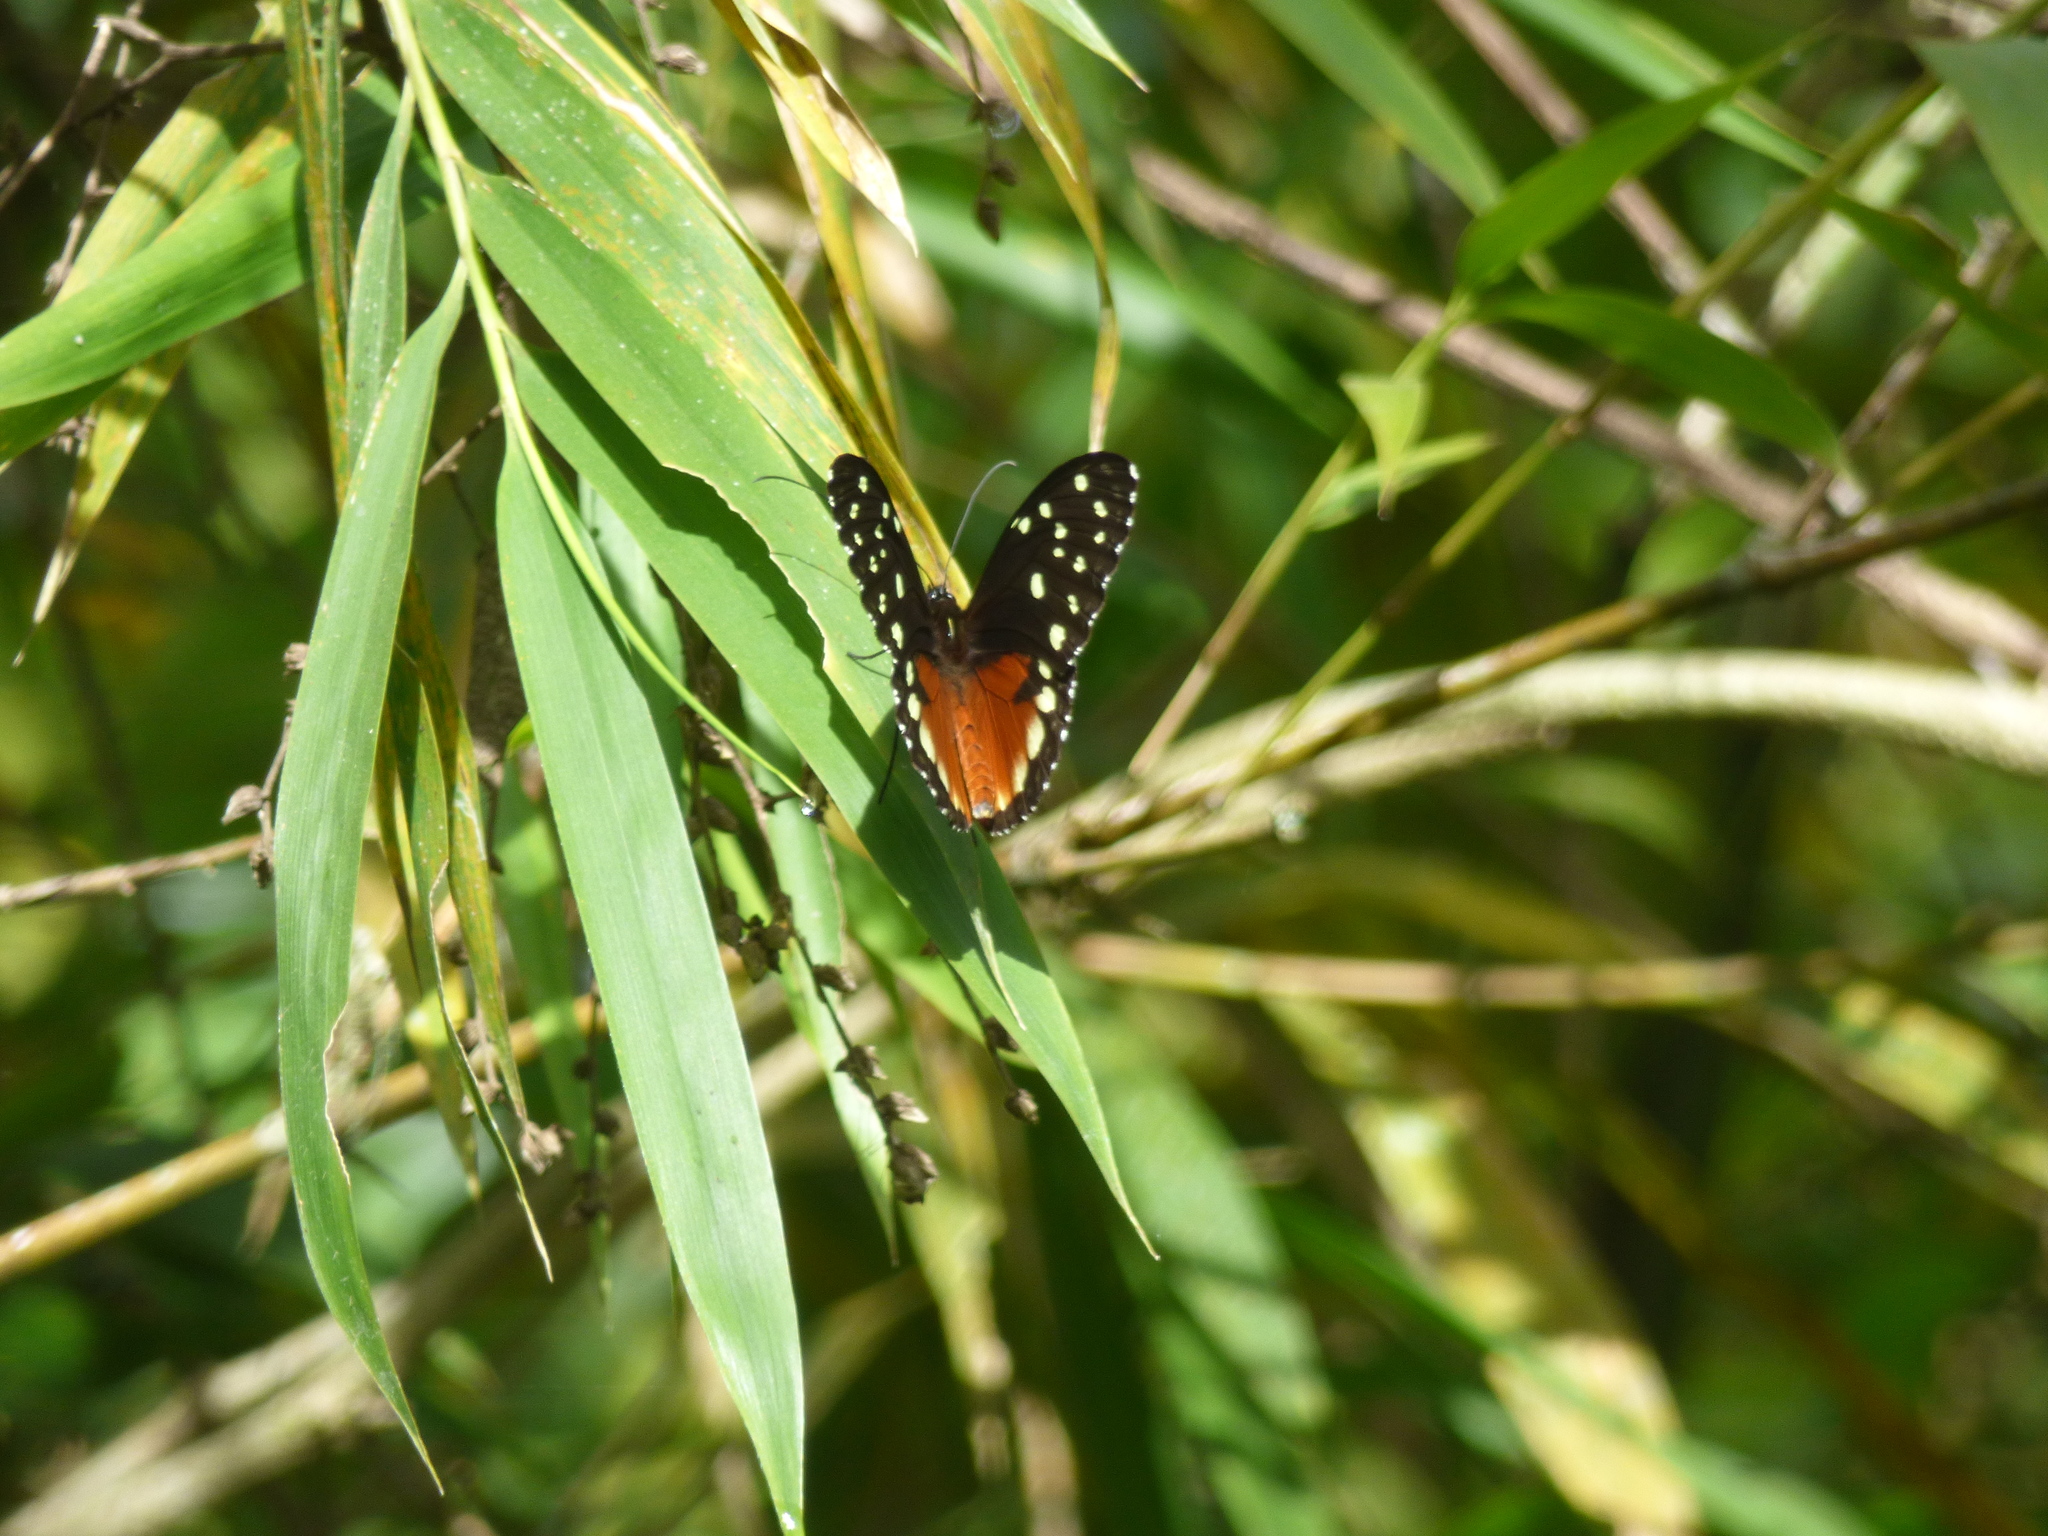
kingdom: Animalia
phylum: Arthropoda
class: Insecta
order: Lepidoptera
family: Nymphalidae
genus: Tithorea
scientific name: Tithorea tarricina
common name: Cream-spotted tigerwing
